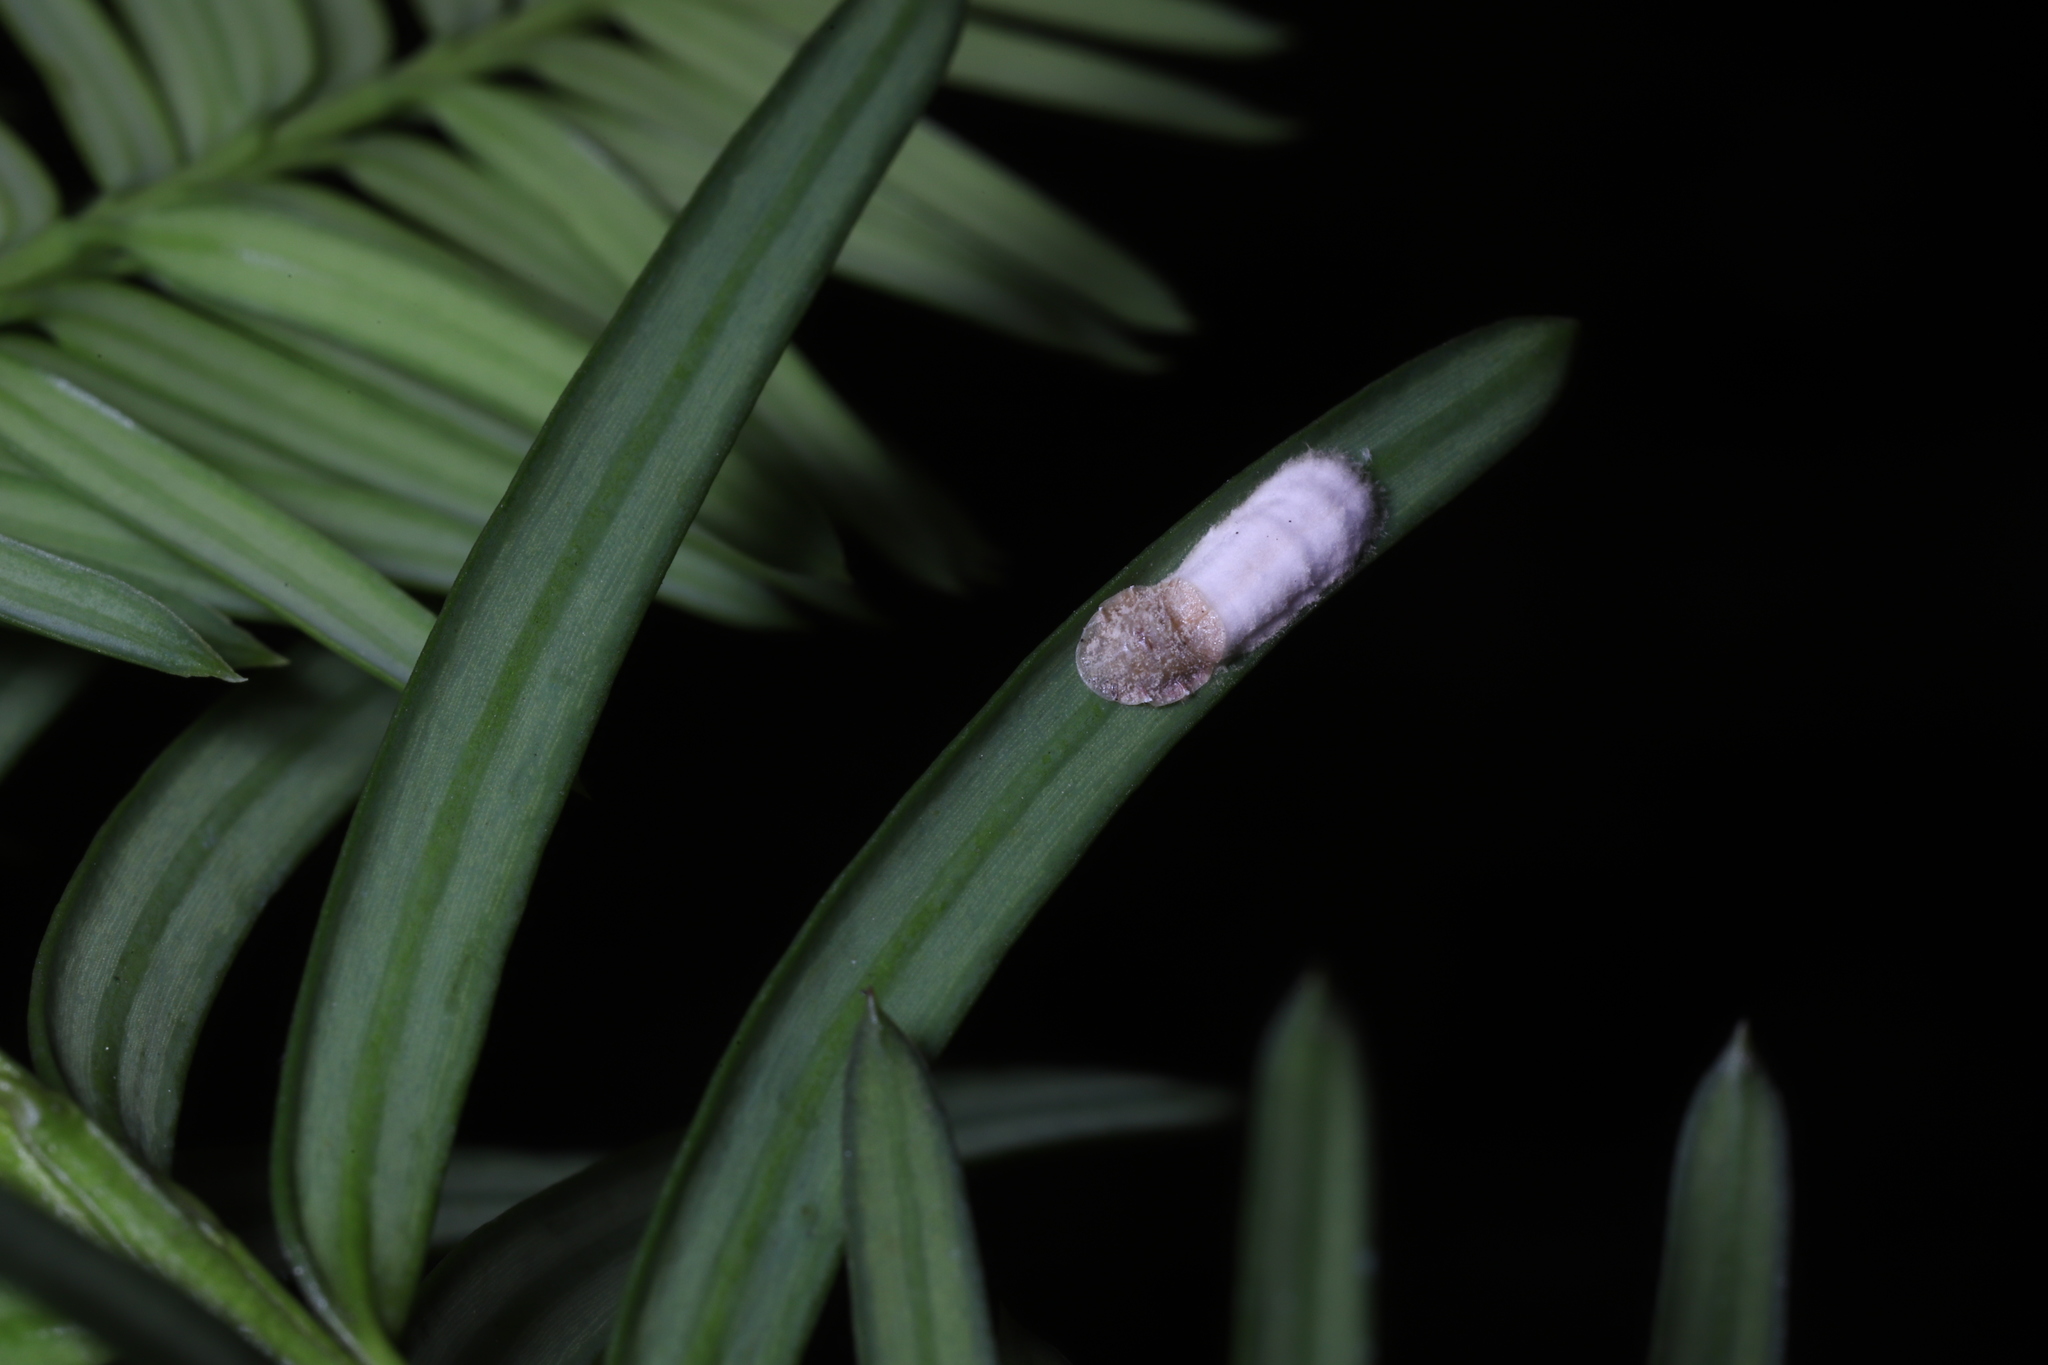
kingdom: Animalia
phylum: Arthropoda
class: Insecta
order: Hemiptera
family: Coccidae
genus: Pulvinaria
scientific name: Pulvinaria floccifera
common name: Cottony camellia scale
